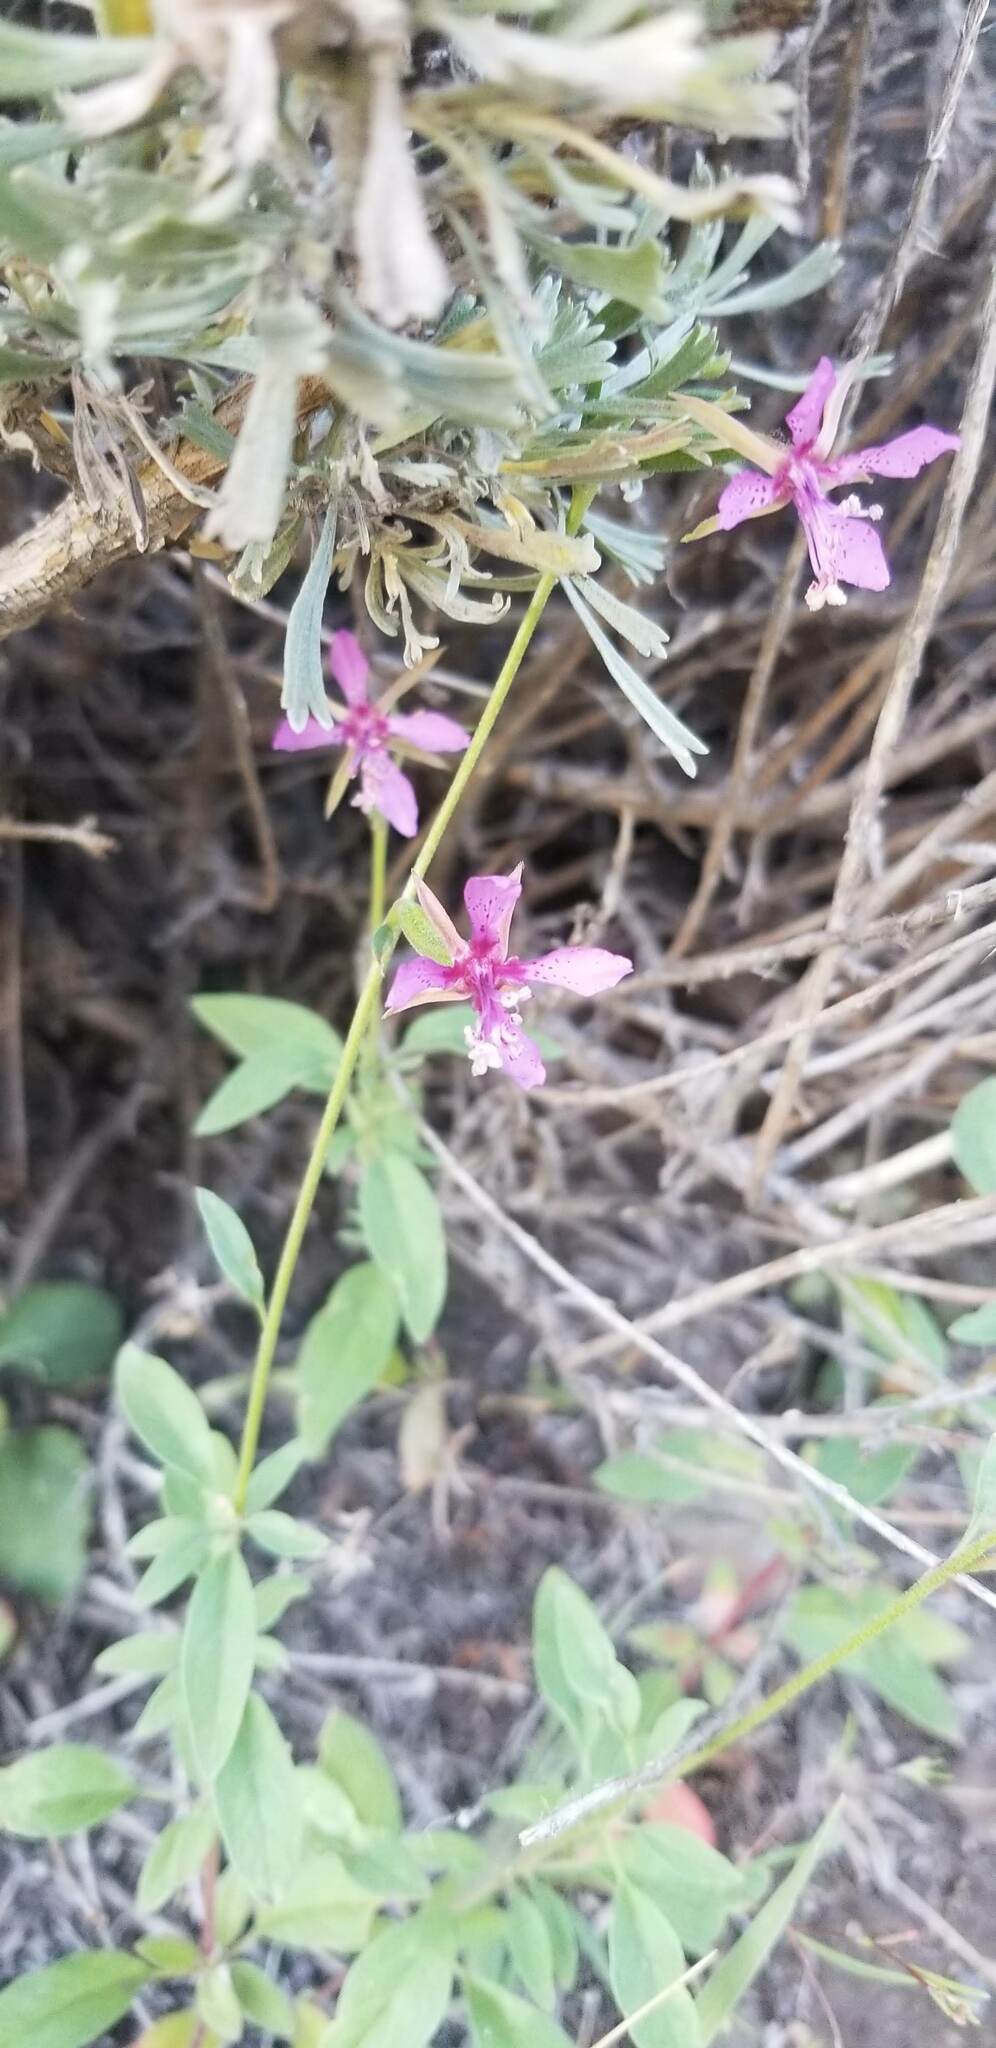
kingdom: Plantae
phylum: Tracheophyta
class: Magnoliopsida
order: Myrtales
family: Onagraceae
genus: Clarkia
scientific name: Clarkia rhomboidea
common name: Broadleaf clarkia
